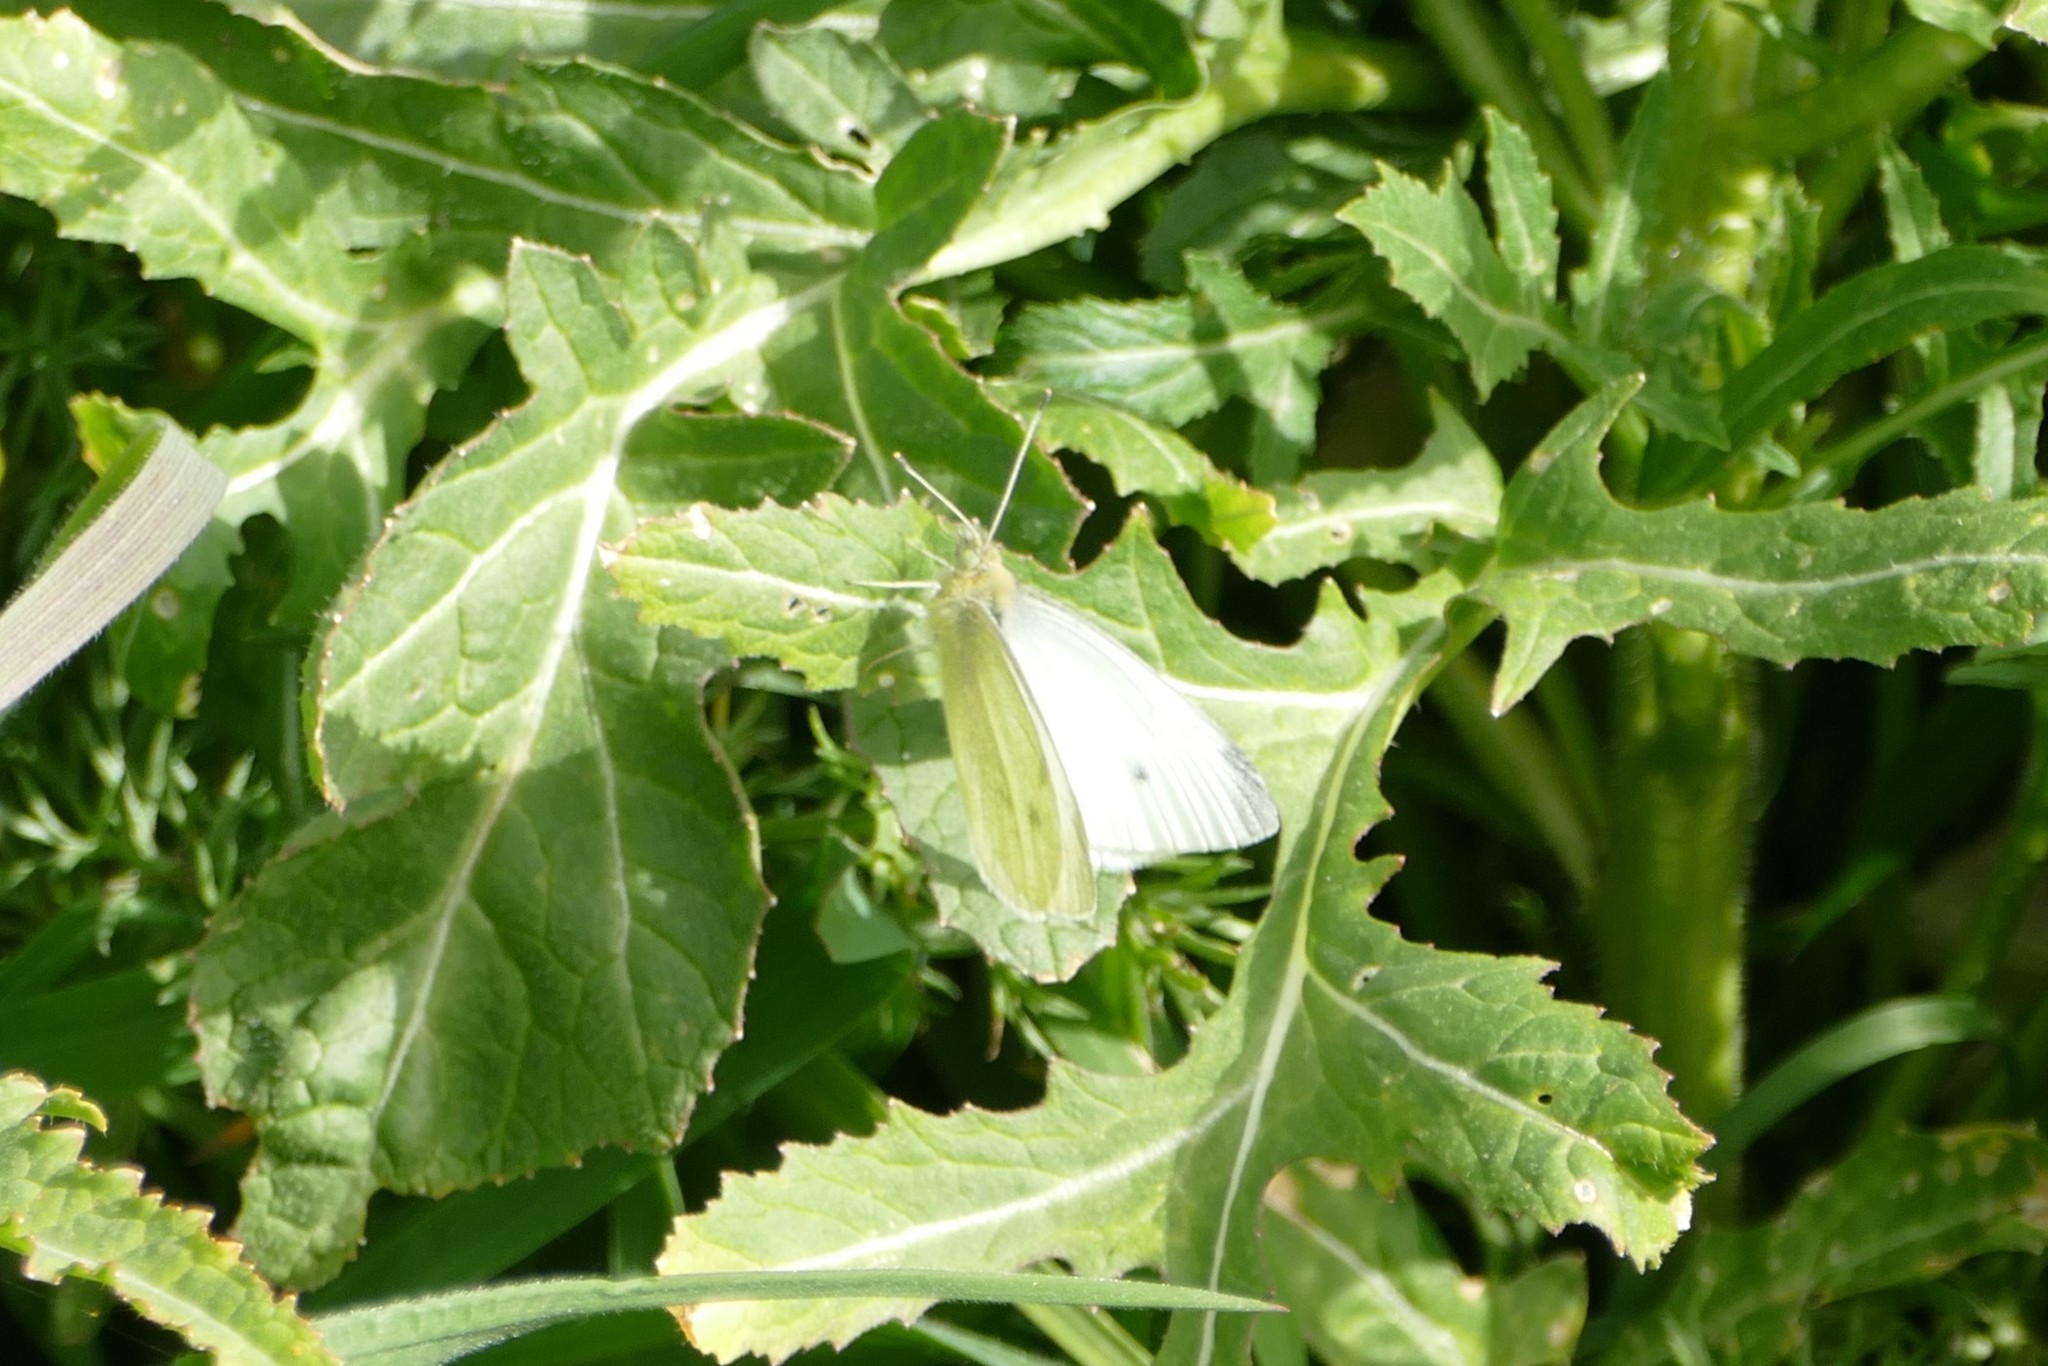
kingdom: Animalia
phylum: Arthropoda
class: Insecta
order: Lepidoptera
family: Pieridae
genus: Pieris
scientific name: Pieris rapae
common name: Small white
